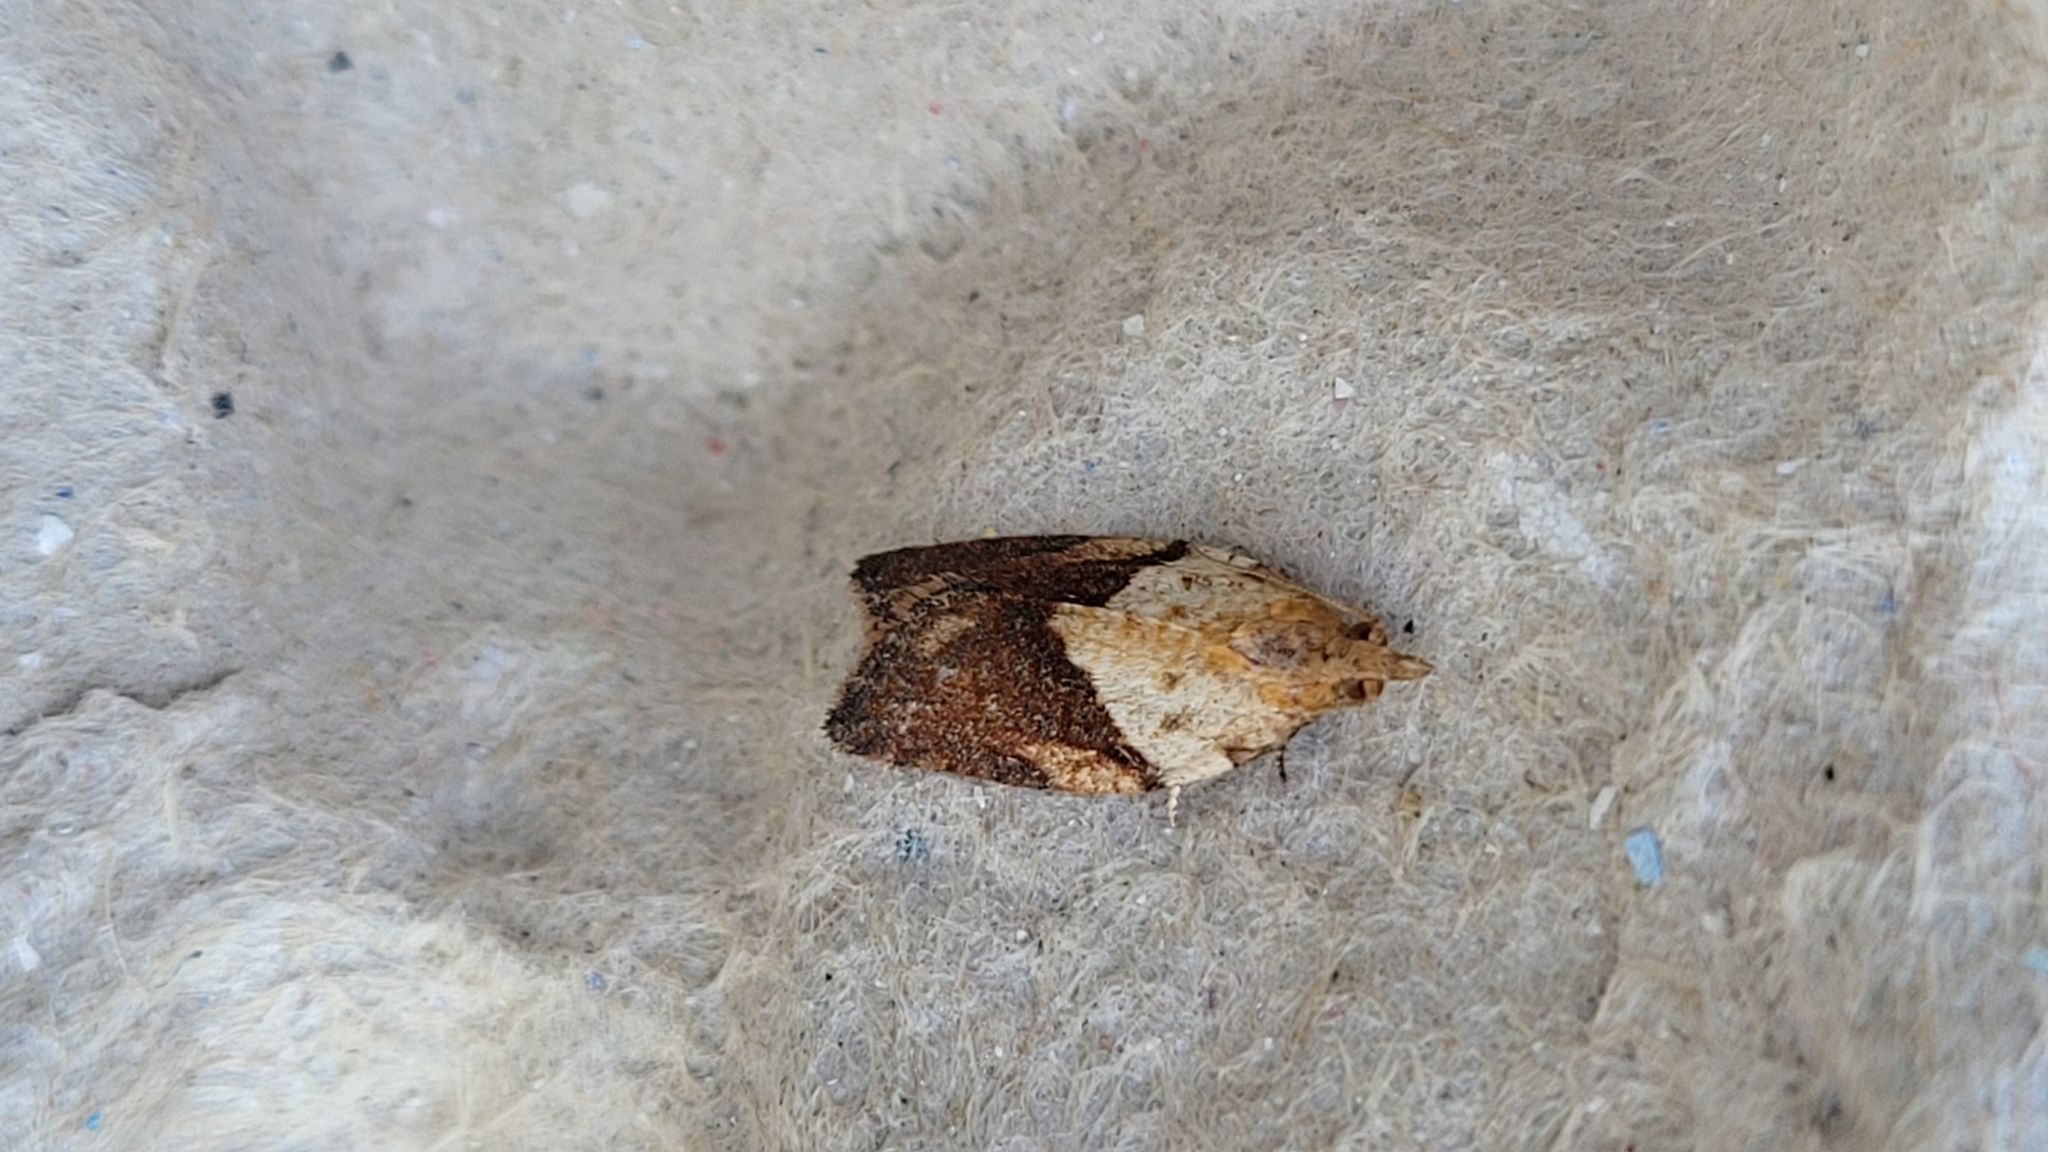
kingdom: Animalia
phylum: Arthropoda
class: Insecta
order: Lepidoptera
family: Tortricidae
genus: Epiphyas
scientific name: Epiphyas postvittana
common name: Light brown apple moth
